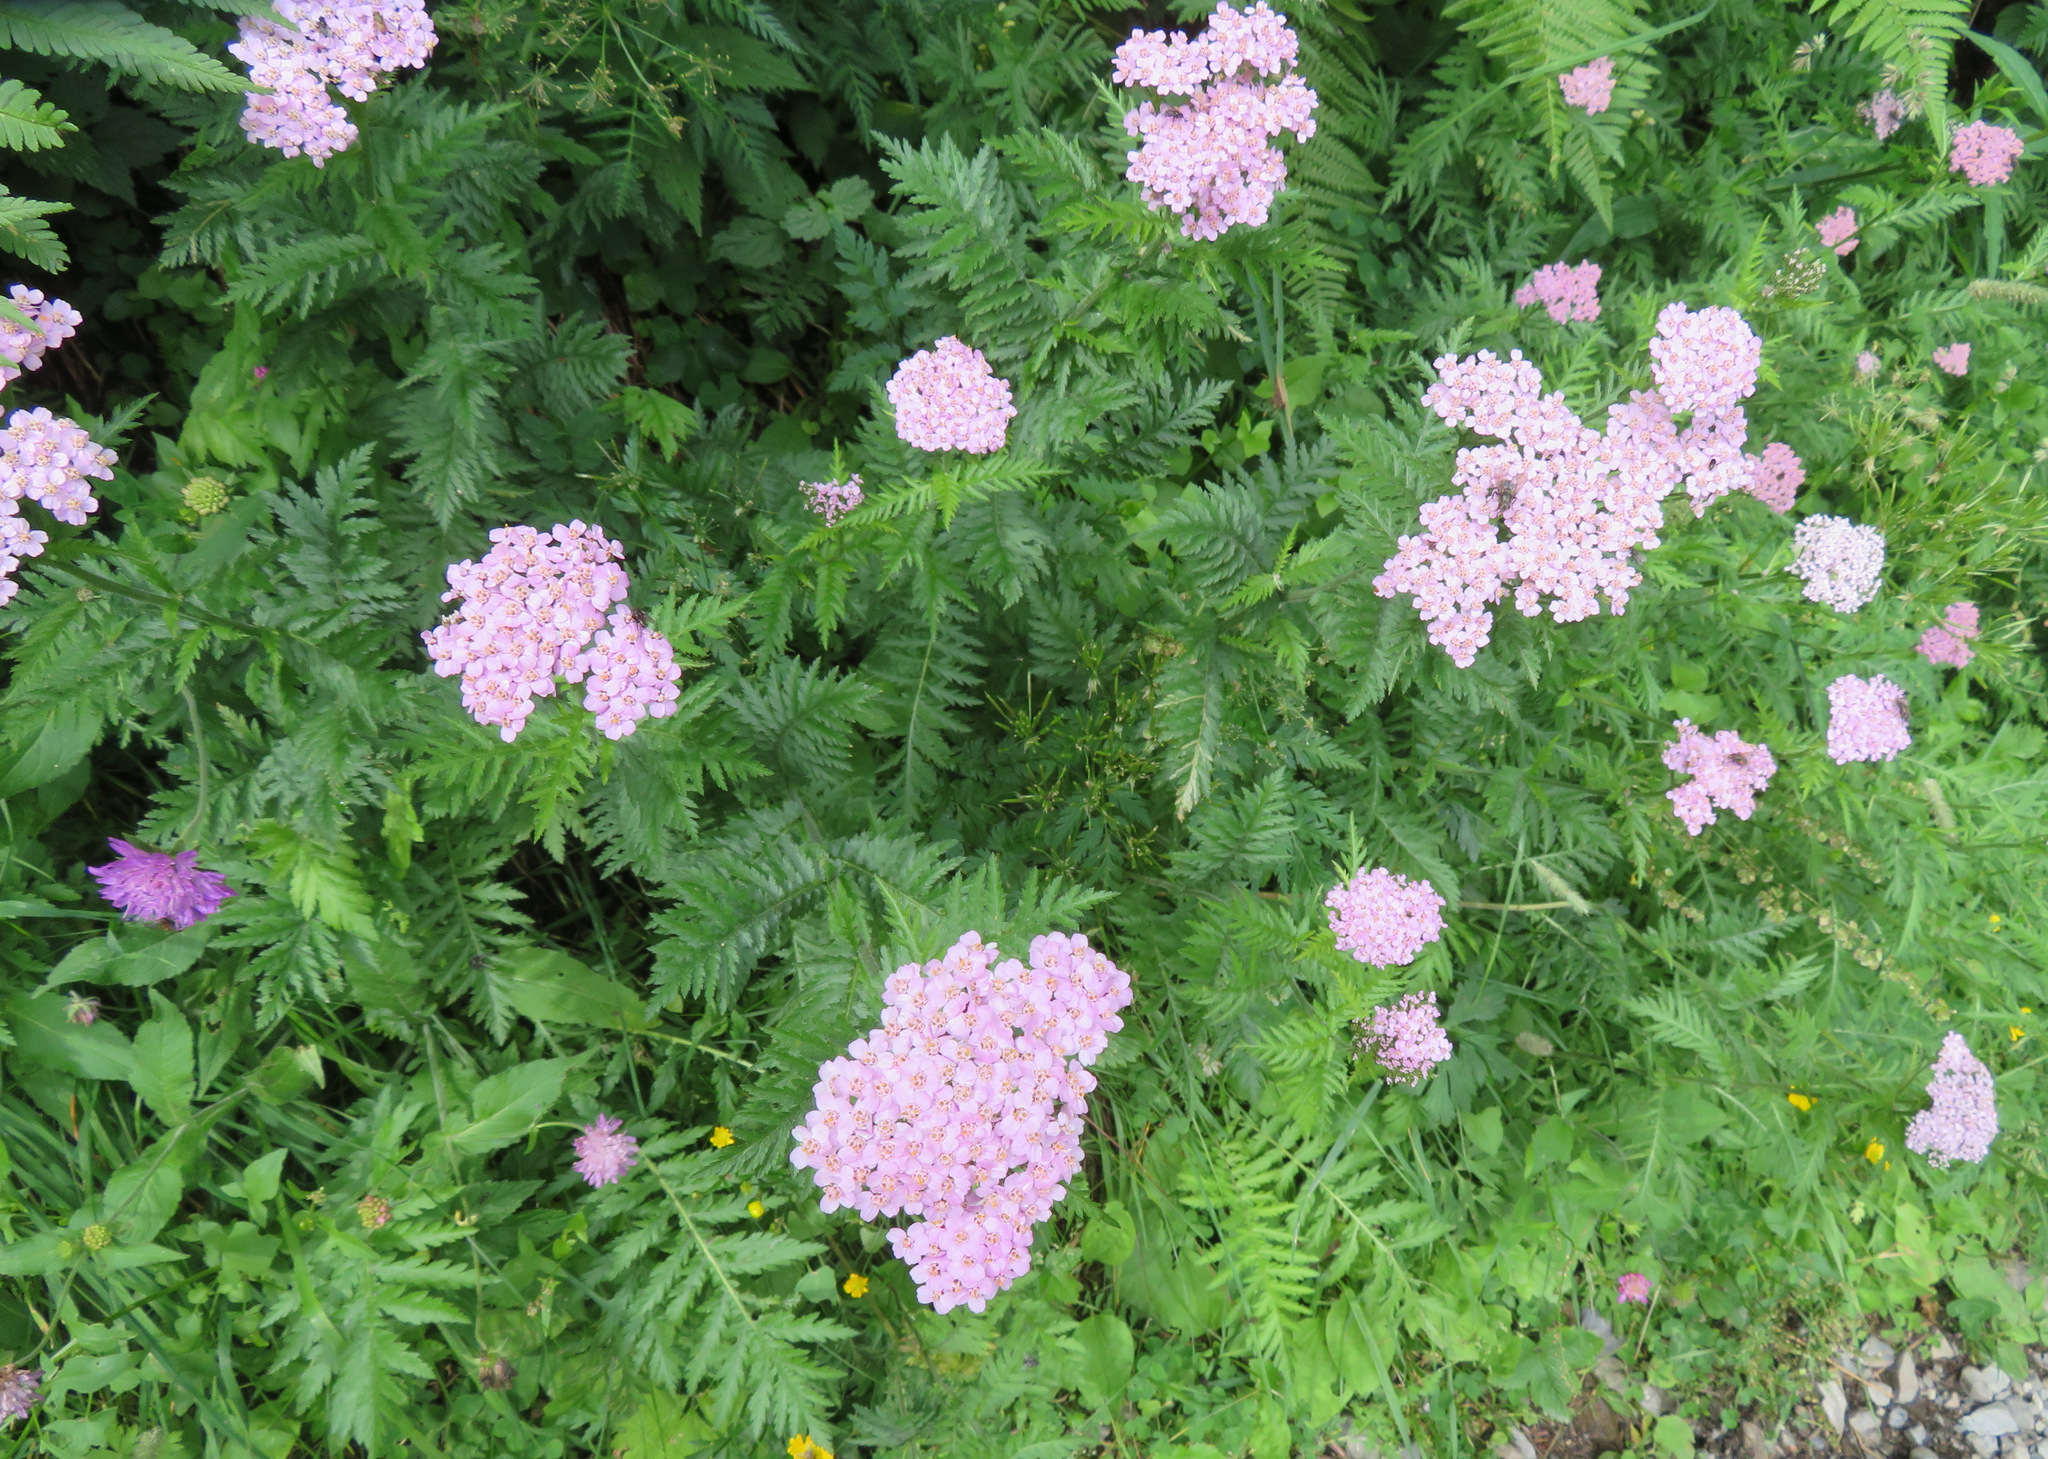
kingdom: Plantae
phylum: Tracheophyta
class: Magnoliopsida
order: Asterales
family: Asteraceae
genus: Achillea
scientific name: Achillea distans
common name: Tall yarrow
